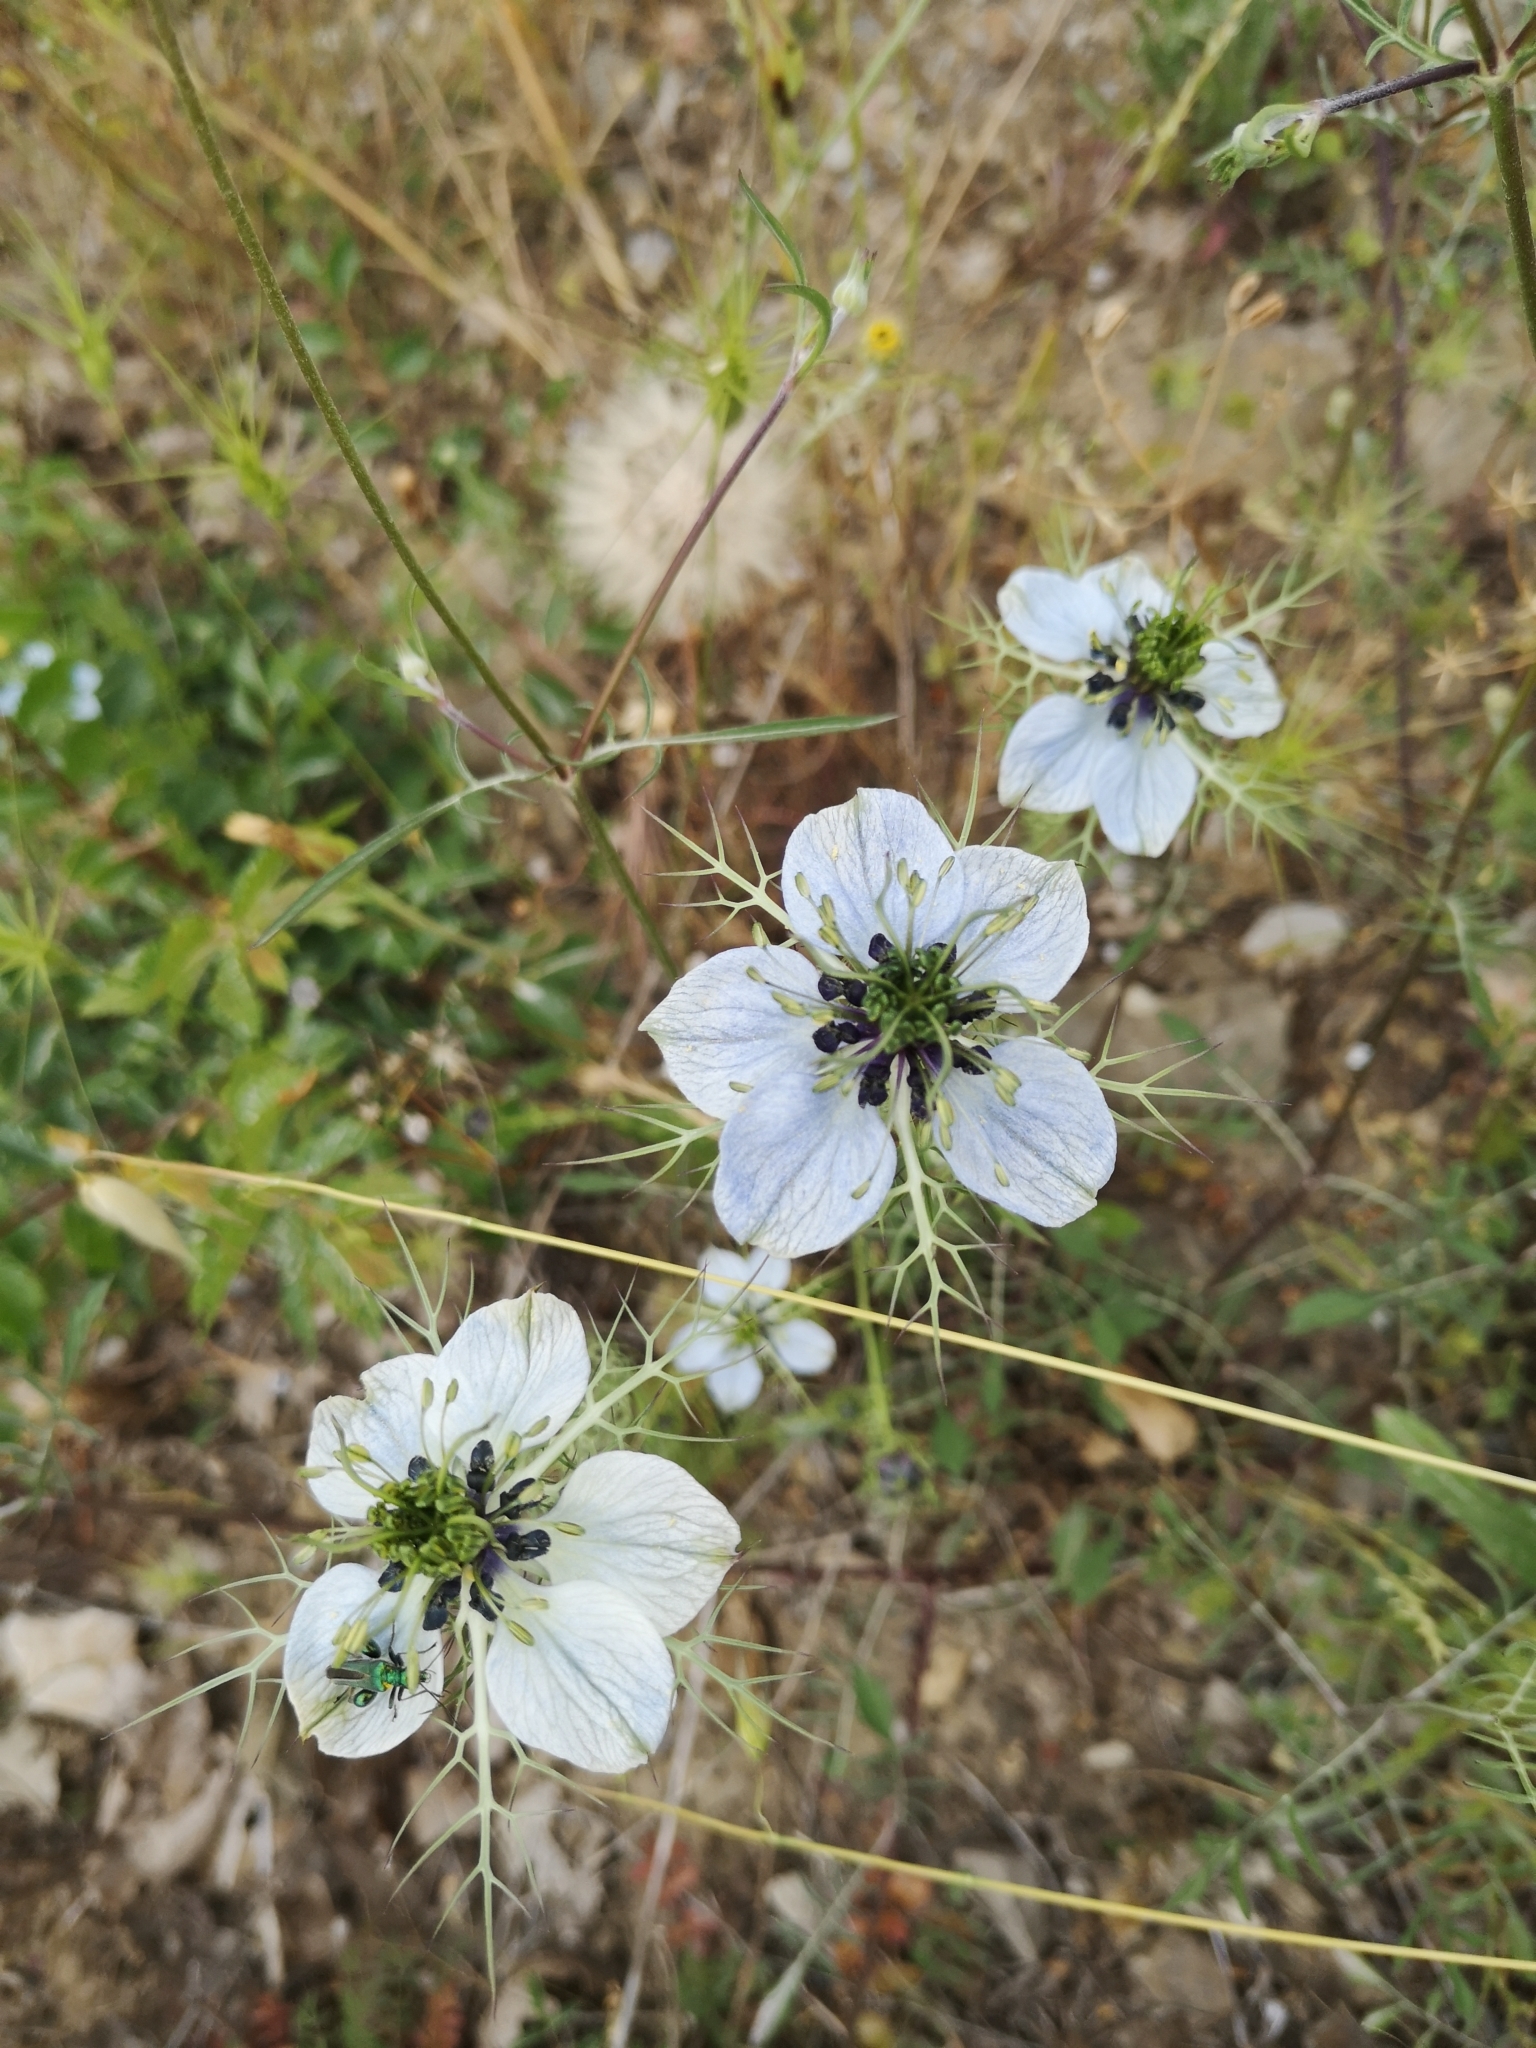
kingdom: Plantae
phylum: Tracheophyta
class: Magnoliopsida
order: Ranunculales
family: Ranunculaceae
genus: Nigella
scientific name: Nigella damascena
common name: Love-in-a-mist
